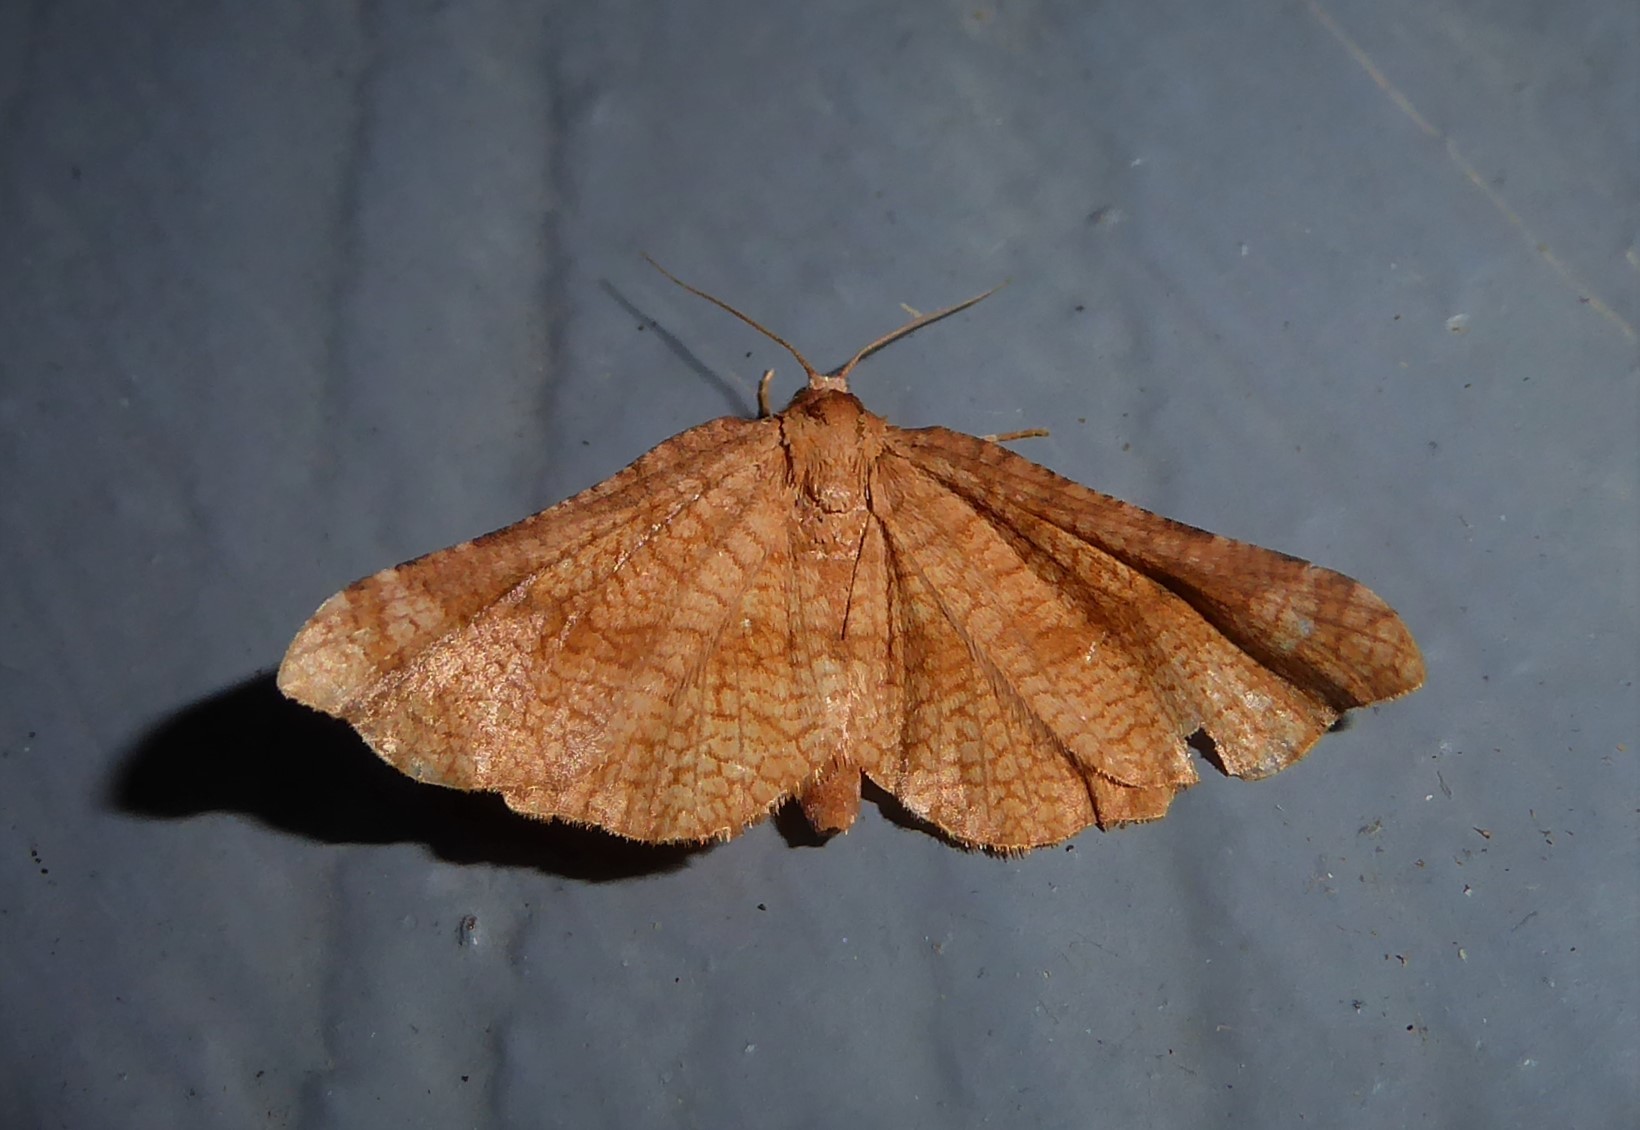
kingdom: Animalia
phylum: Arthropoda
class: Insecta
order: Lepidoptera
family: Thyrididae
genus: Morova
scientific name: Morova subfasciata
